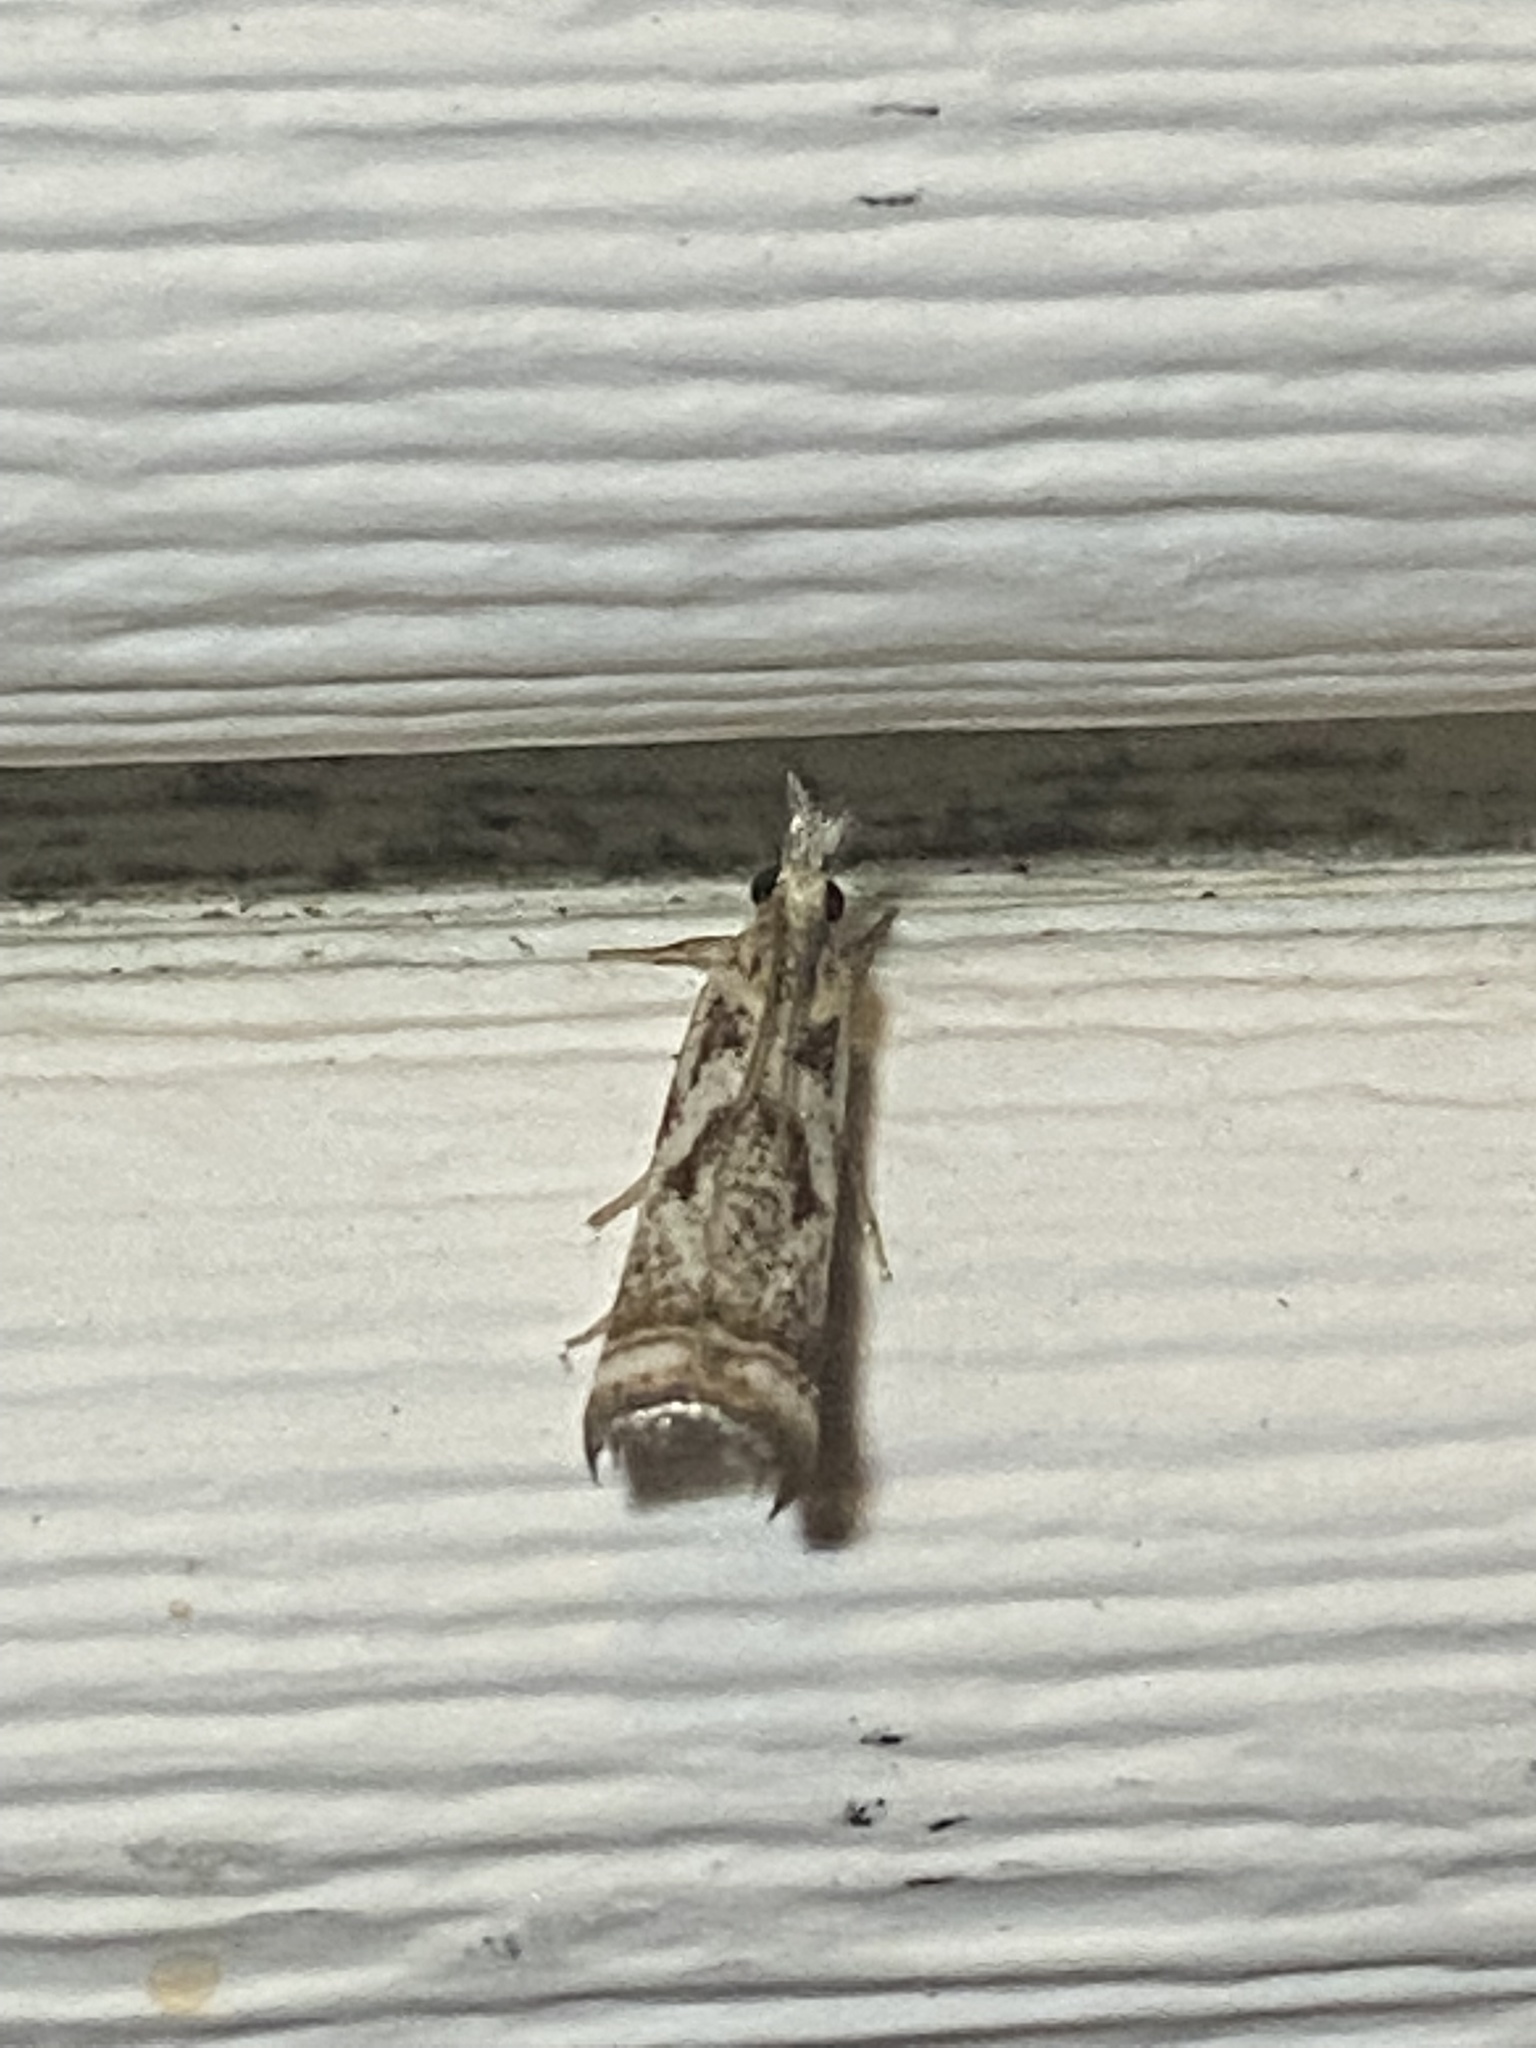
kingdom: Animalia
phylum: Arthropoda
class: Insecta
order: Lepidoptera
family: Crambidae
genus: Microcrambus
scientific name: Microcrambus elegans
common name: Elegant grass-veneer
